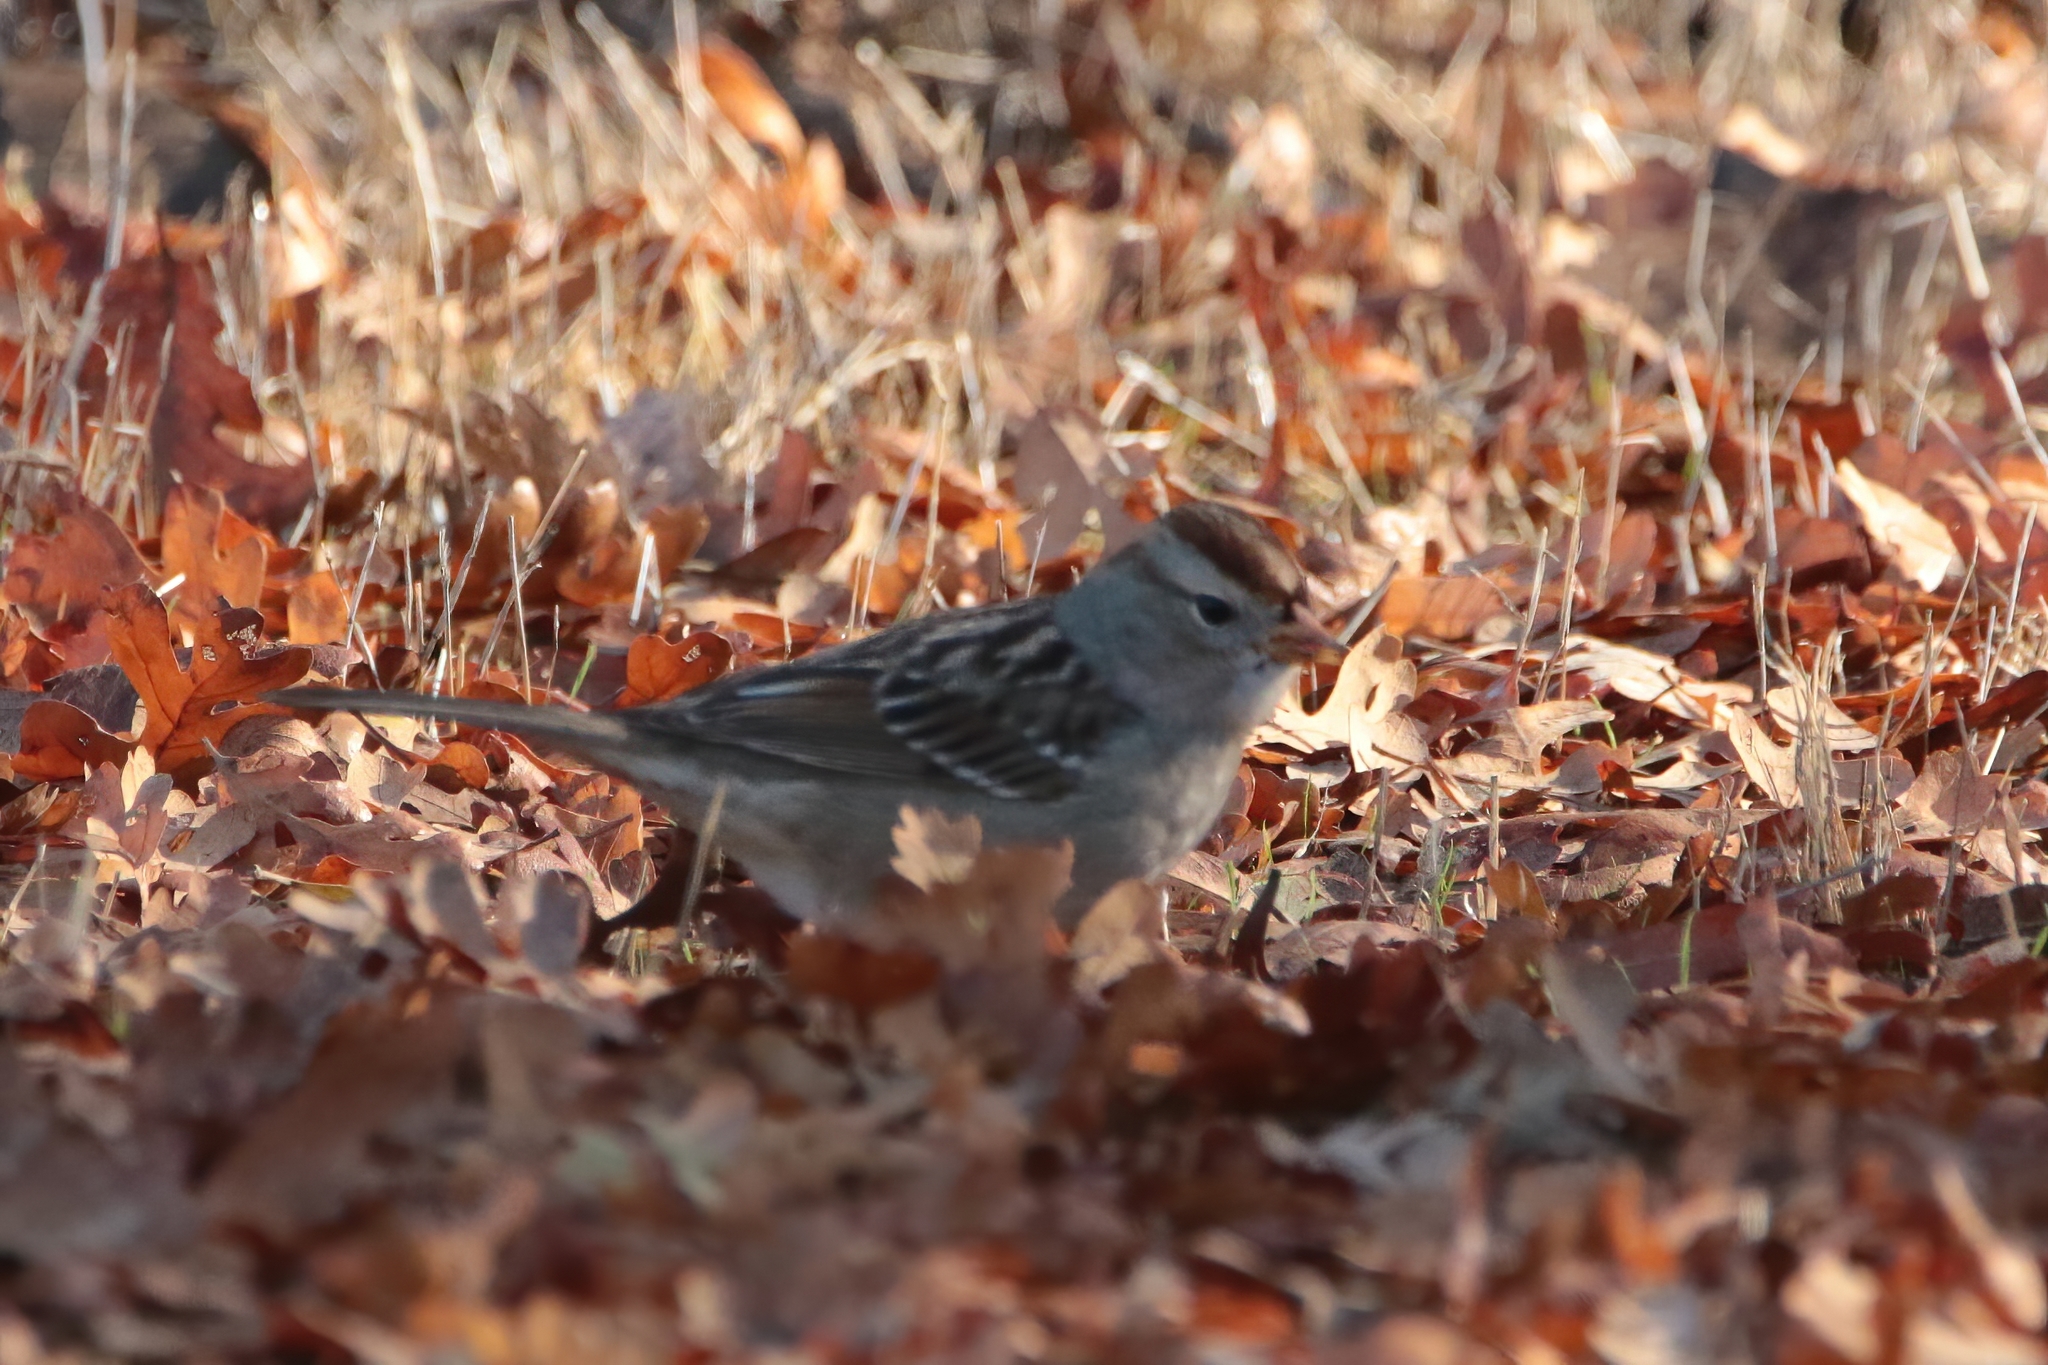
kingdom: Animalia
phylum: Chordata
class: Aves
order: Passeriformes
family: Passerellidae
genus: Zonotrichia
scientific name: Zonotrichia leucophrys
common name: White-crowned sparrow
